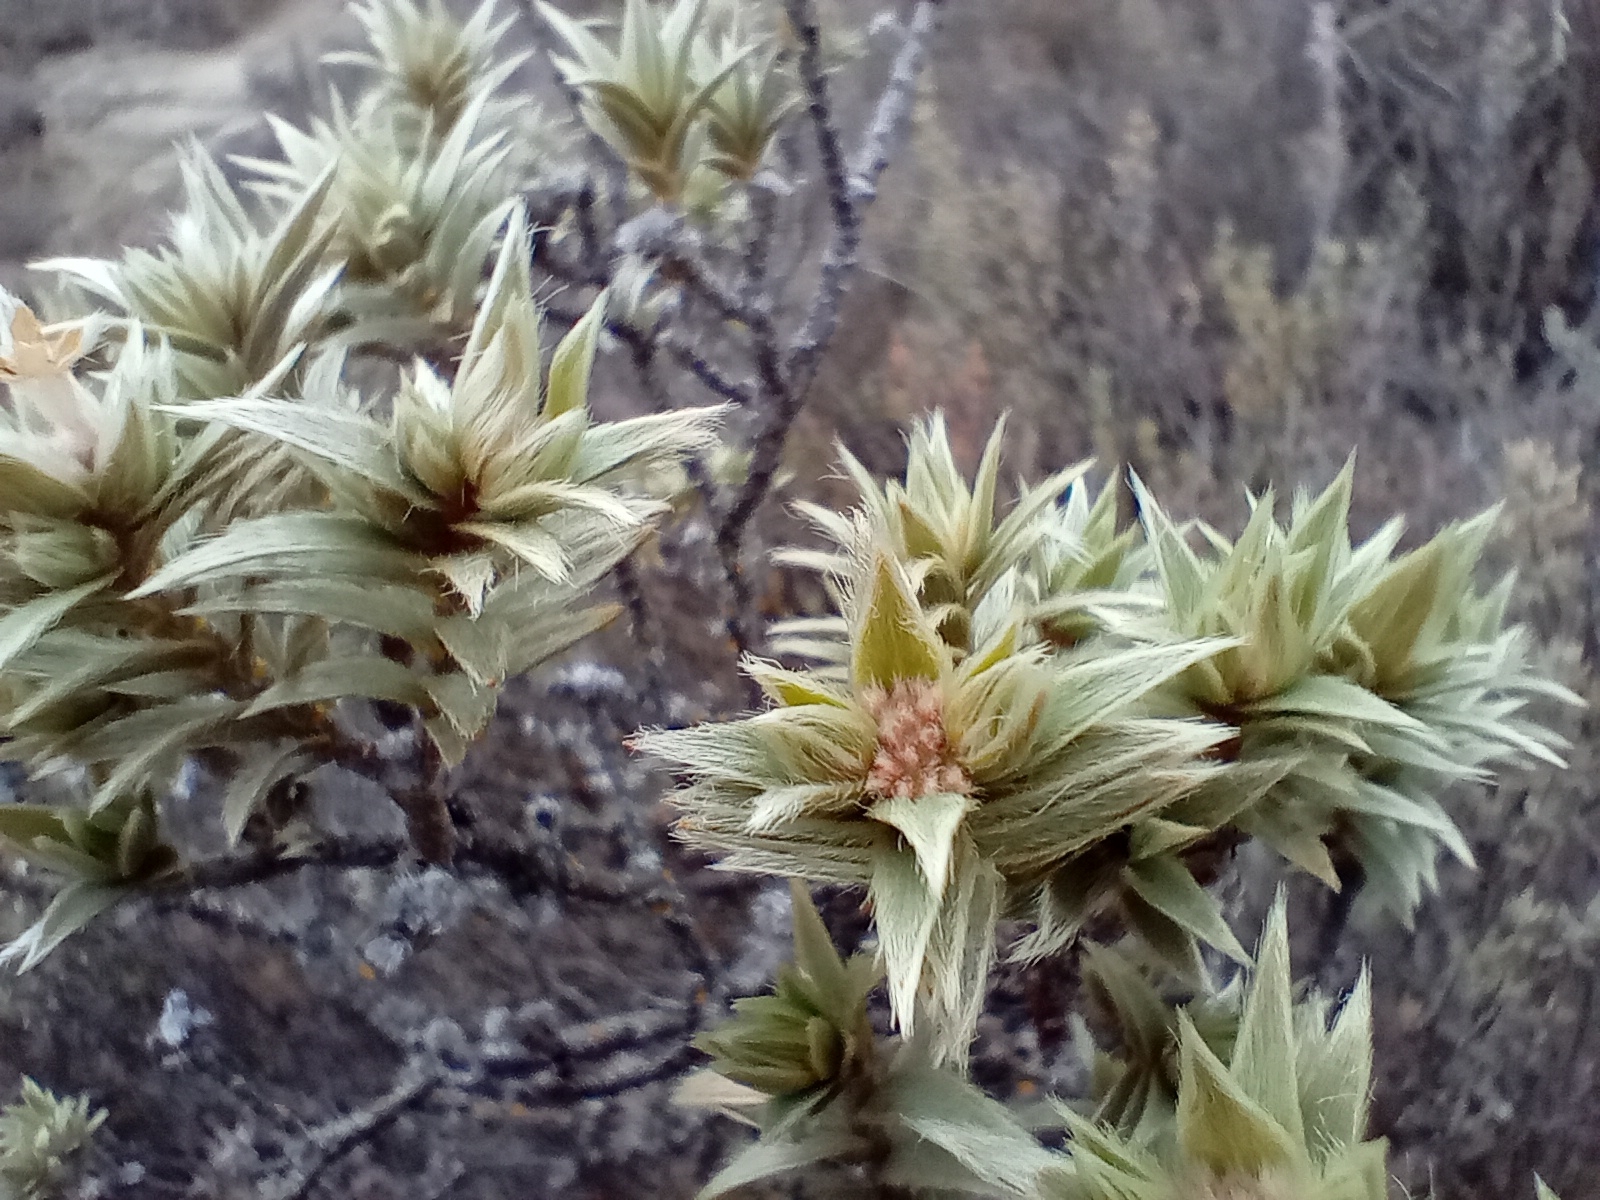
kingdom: Plantae
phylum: Tracheophyta
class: Magnoliopsida
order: Malvales
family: Thymelaeaceae
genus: Pimelea
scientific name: Pimelea aridula
